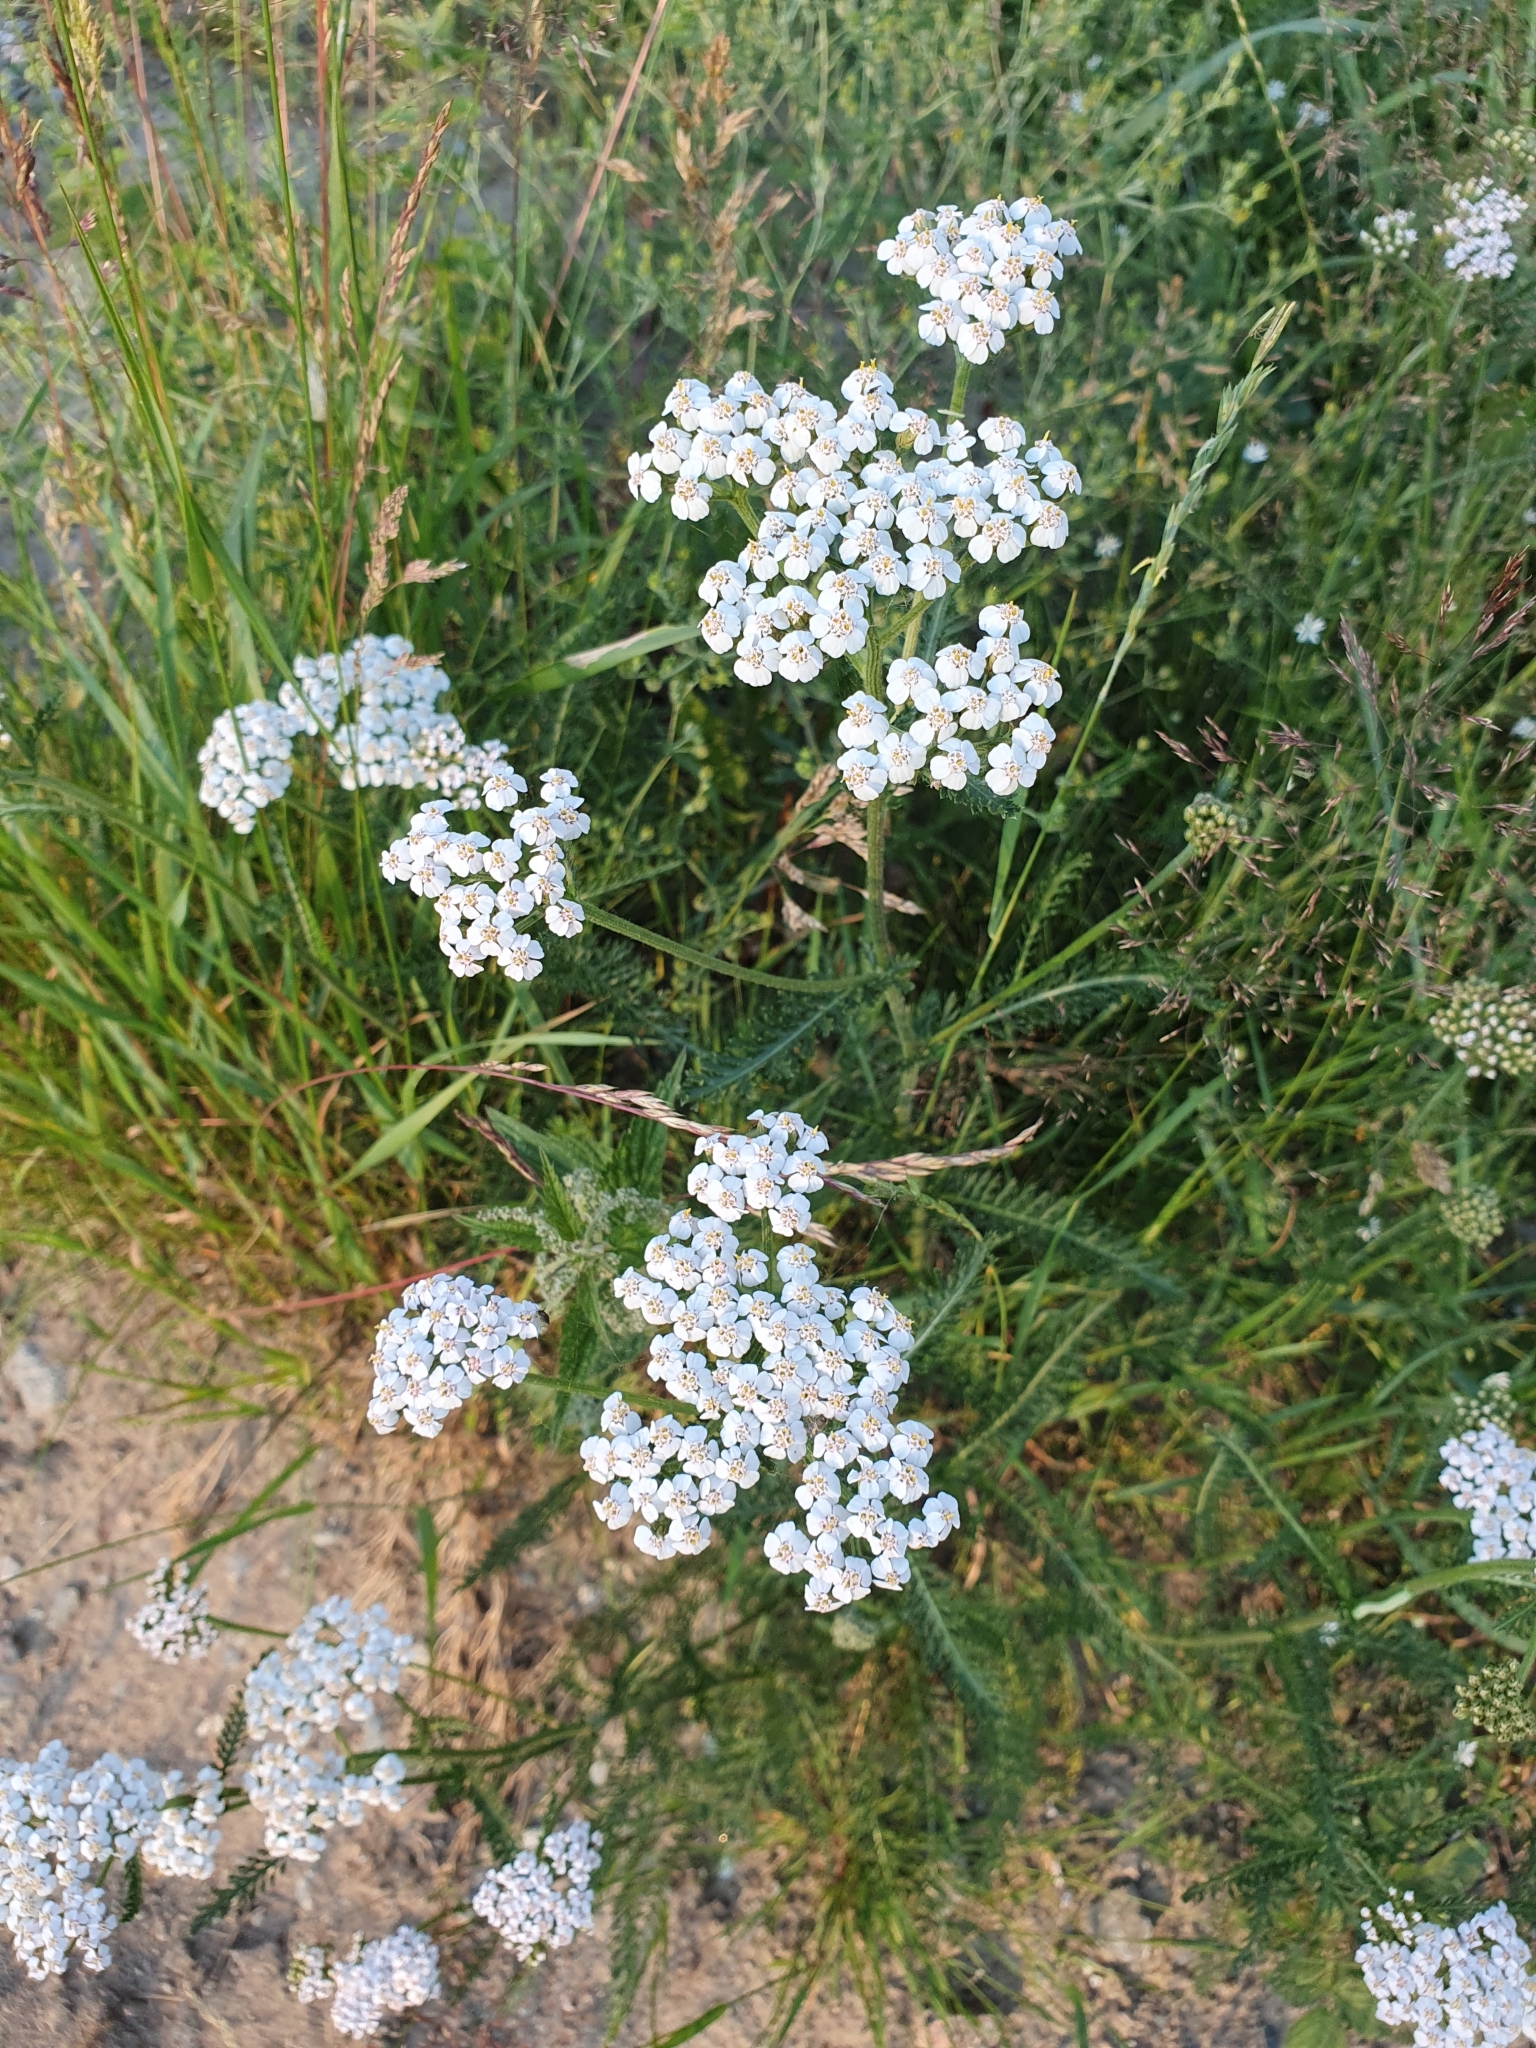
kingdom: Plantae
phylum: Tracheophyta
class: Magnoliopsida
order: Asterales
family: Asteraceae
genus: Achillea
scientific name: Achillea millefolium
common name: Yarrow
